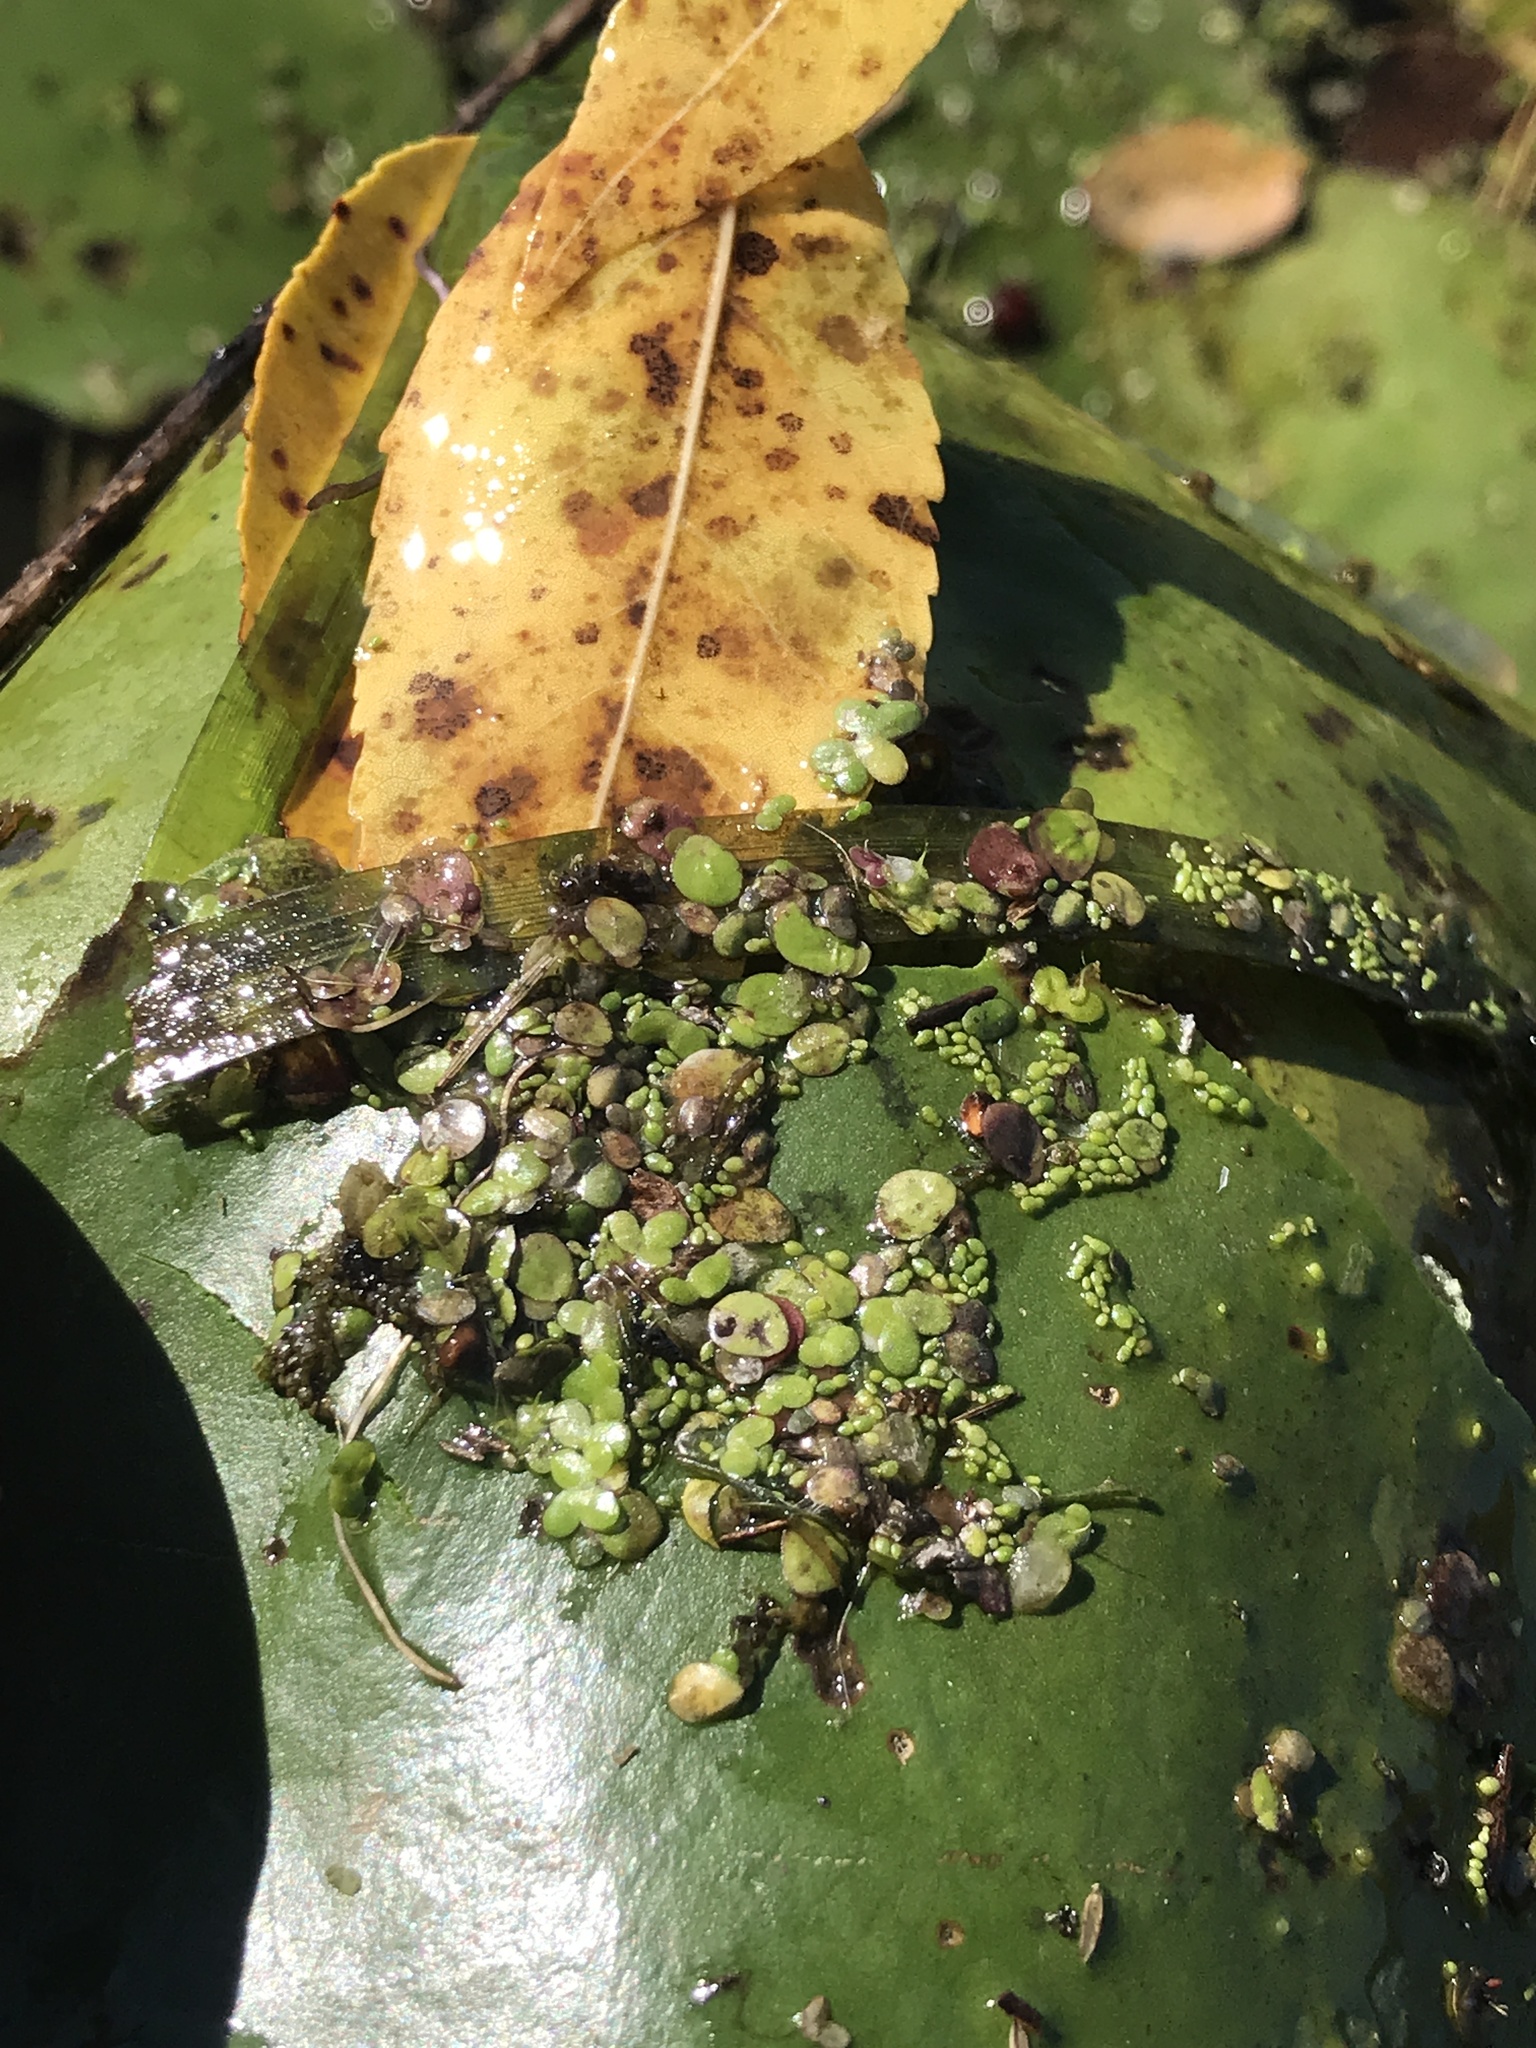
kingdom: Plantae
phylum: Tracheophyta
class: Liliopsida
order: Alismatales
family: Araceae
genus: Spirodela
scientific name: Spirodela polyrhiza
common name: Great duckweed
